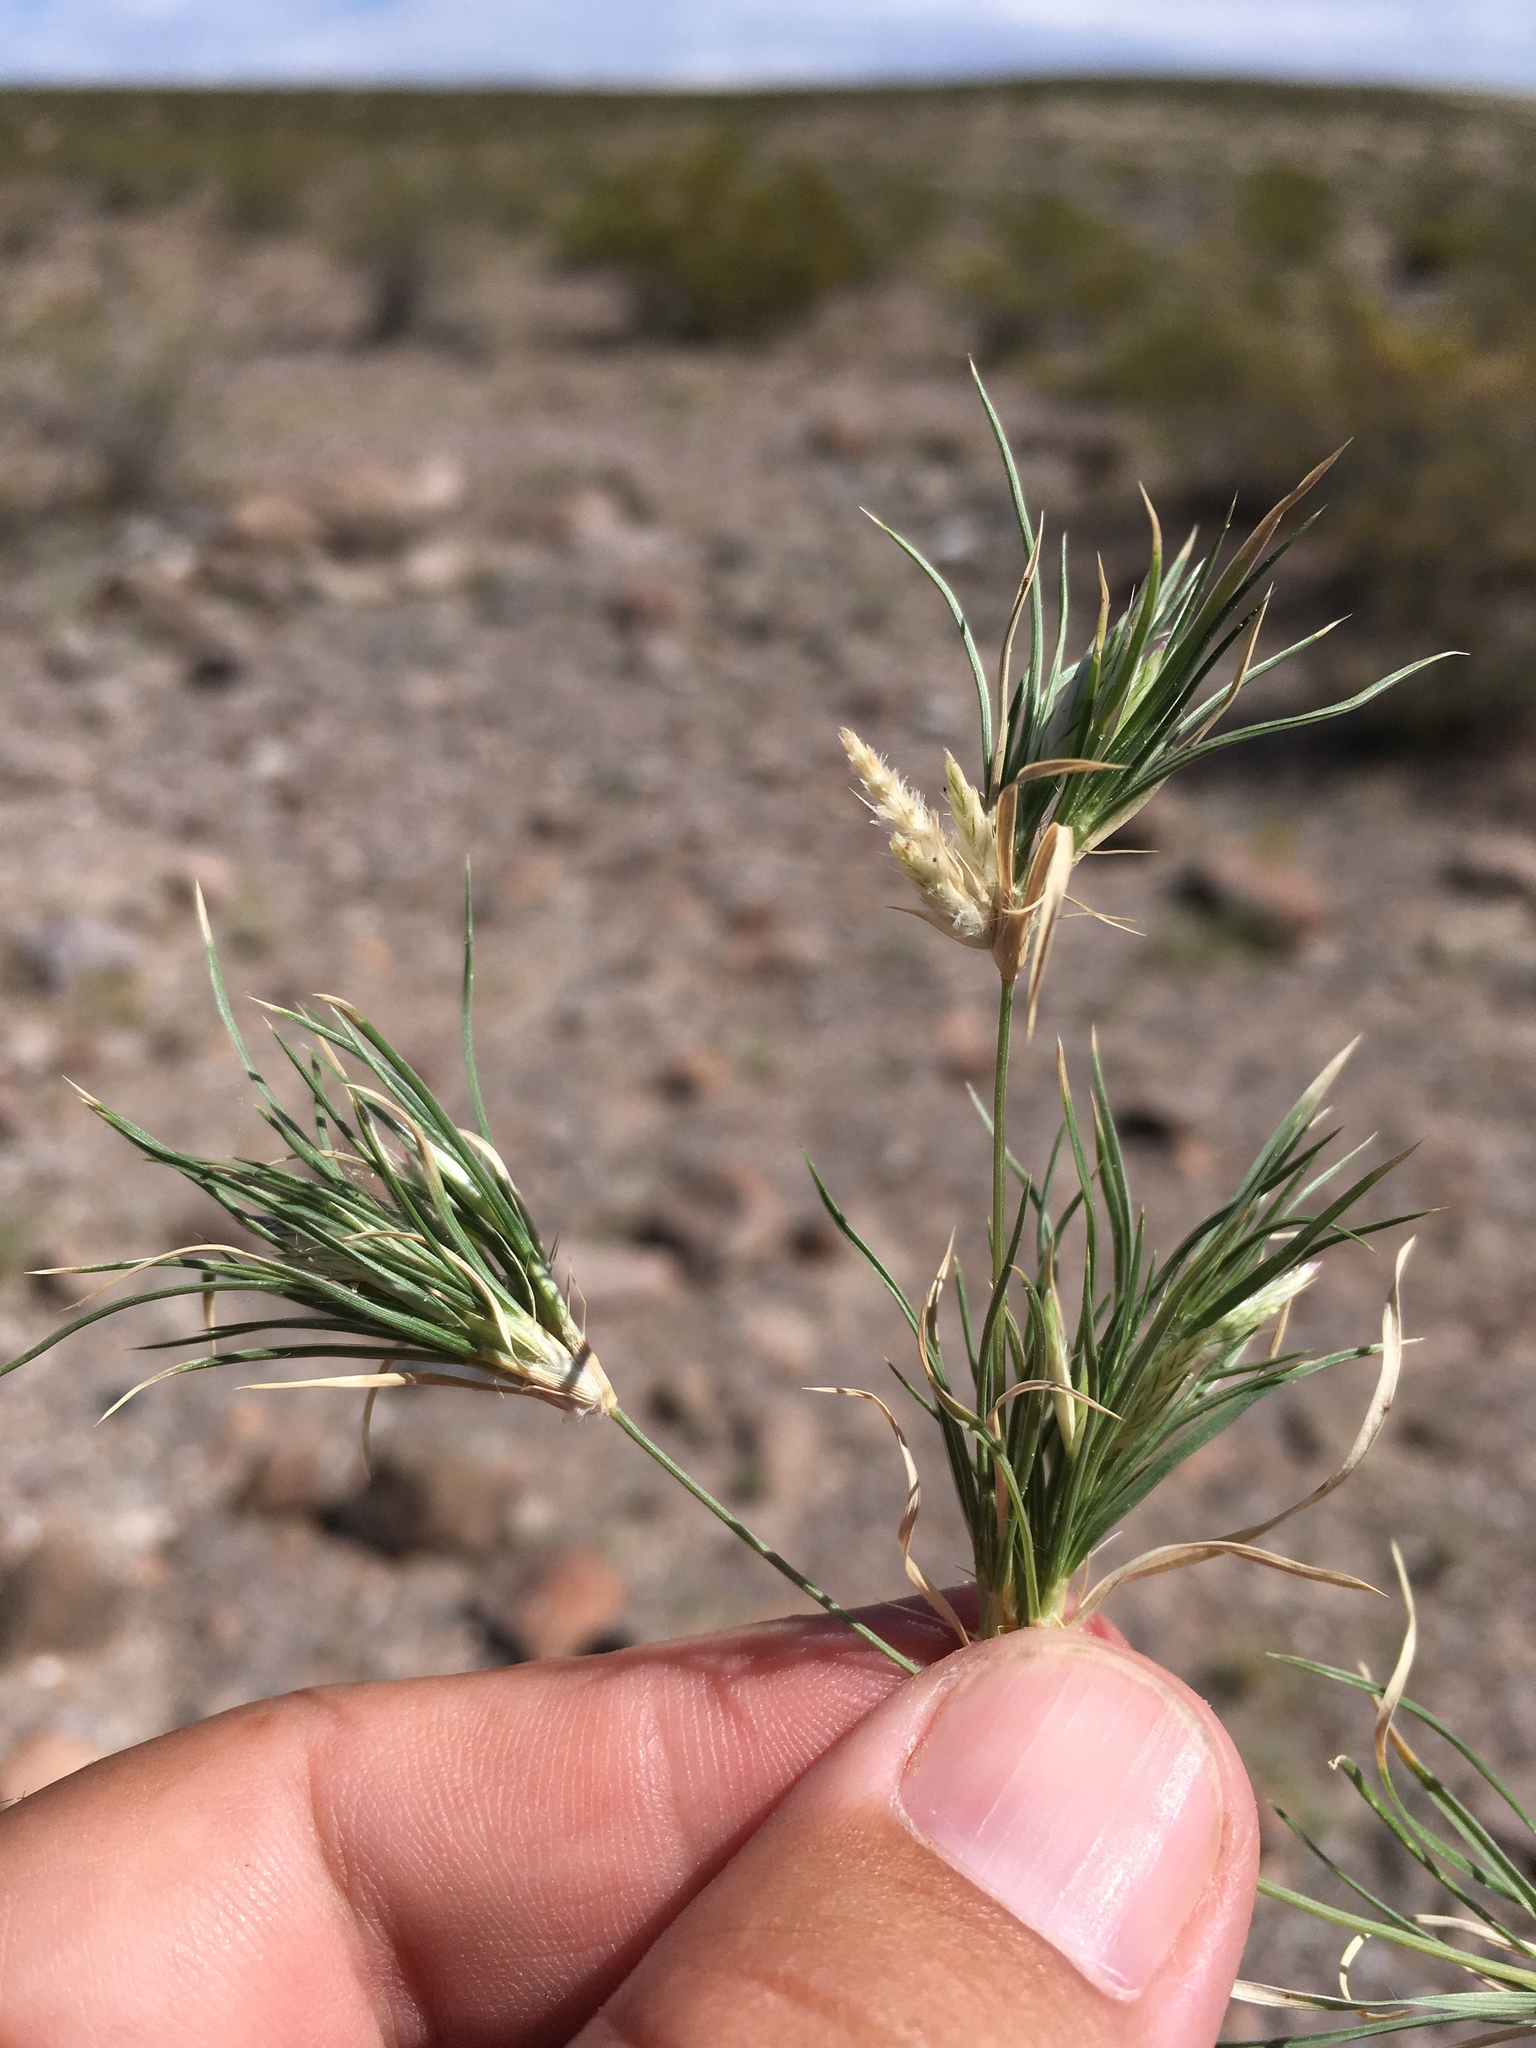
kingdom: Plantae
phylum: Tracheophyta
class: Liliopsida
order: Poales
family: Poaceae
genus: Dasyochloa
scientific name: Dasyochloa pulchella
